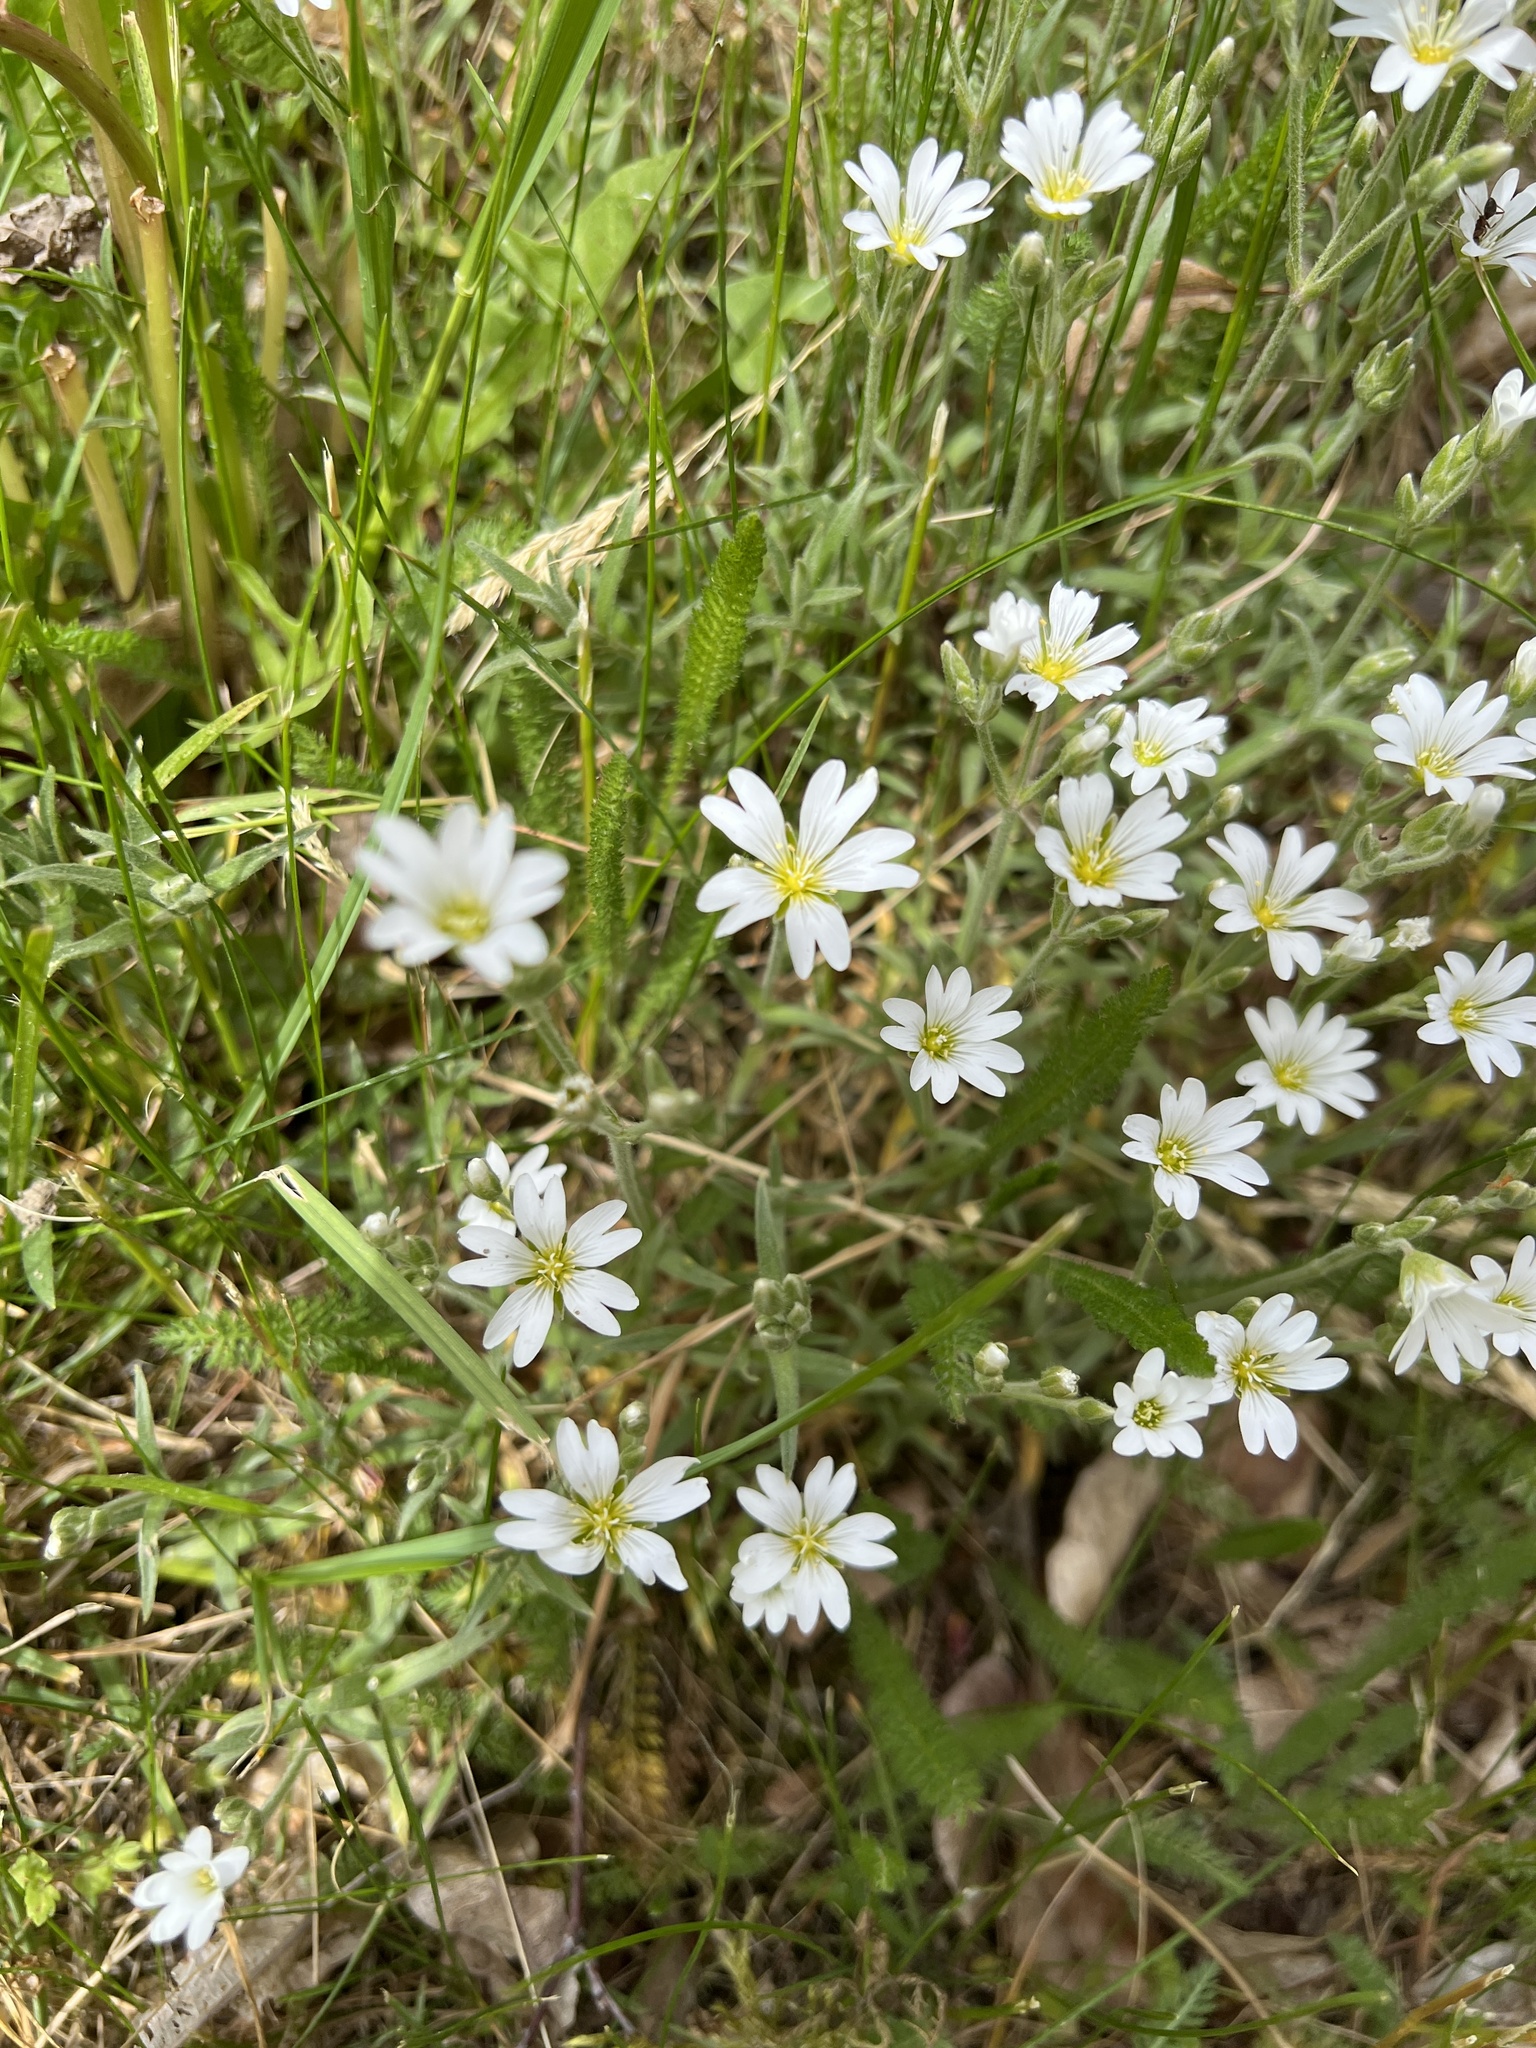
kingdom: Plantae
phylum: Tracheophyta
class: Magnoliopsida
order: Caryophyllales
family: Caryophyllaceae
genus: Cerastium
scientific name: Cerastium arvense
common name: Field mouse-ear
